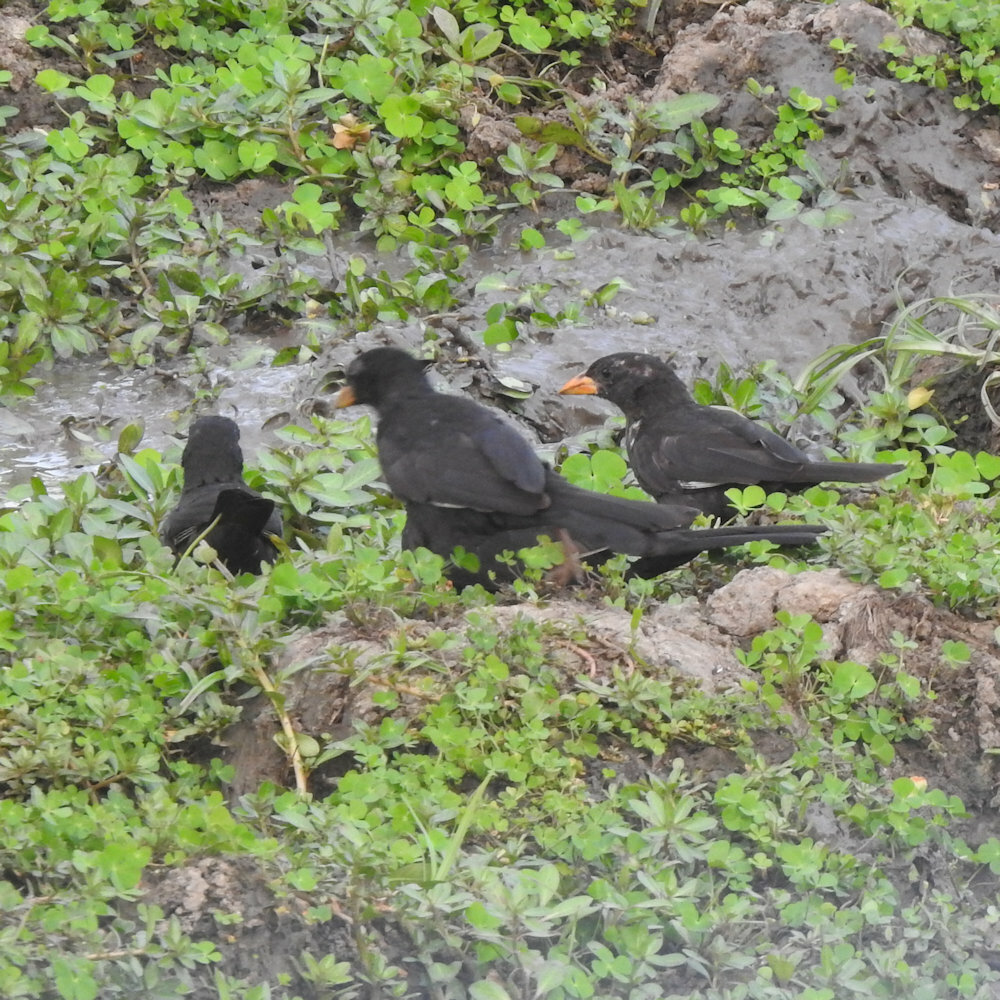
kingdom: Animalia
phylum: Chordata
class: Aves
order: Passeriformes
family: Ploceidae
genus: Bubalornis
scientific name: Bubalornis niger
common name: Red-billed buffalo weaver
